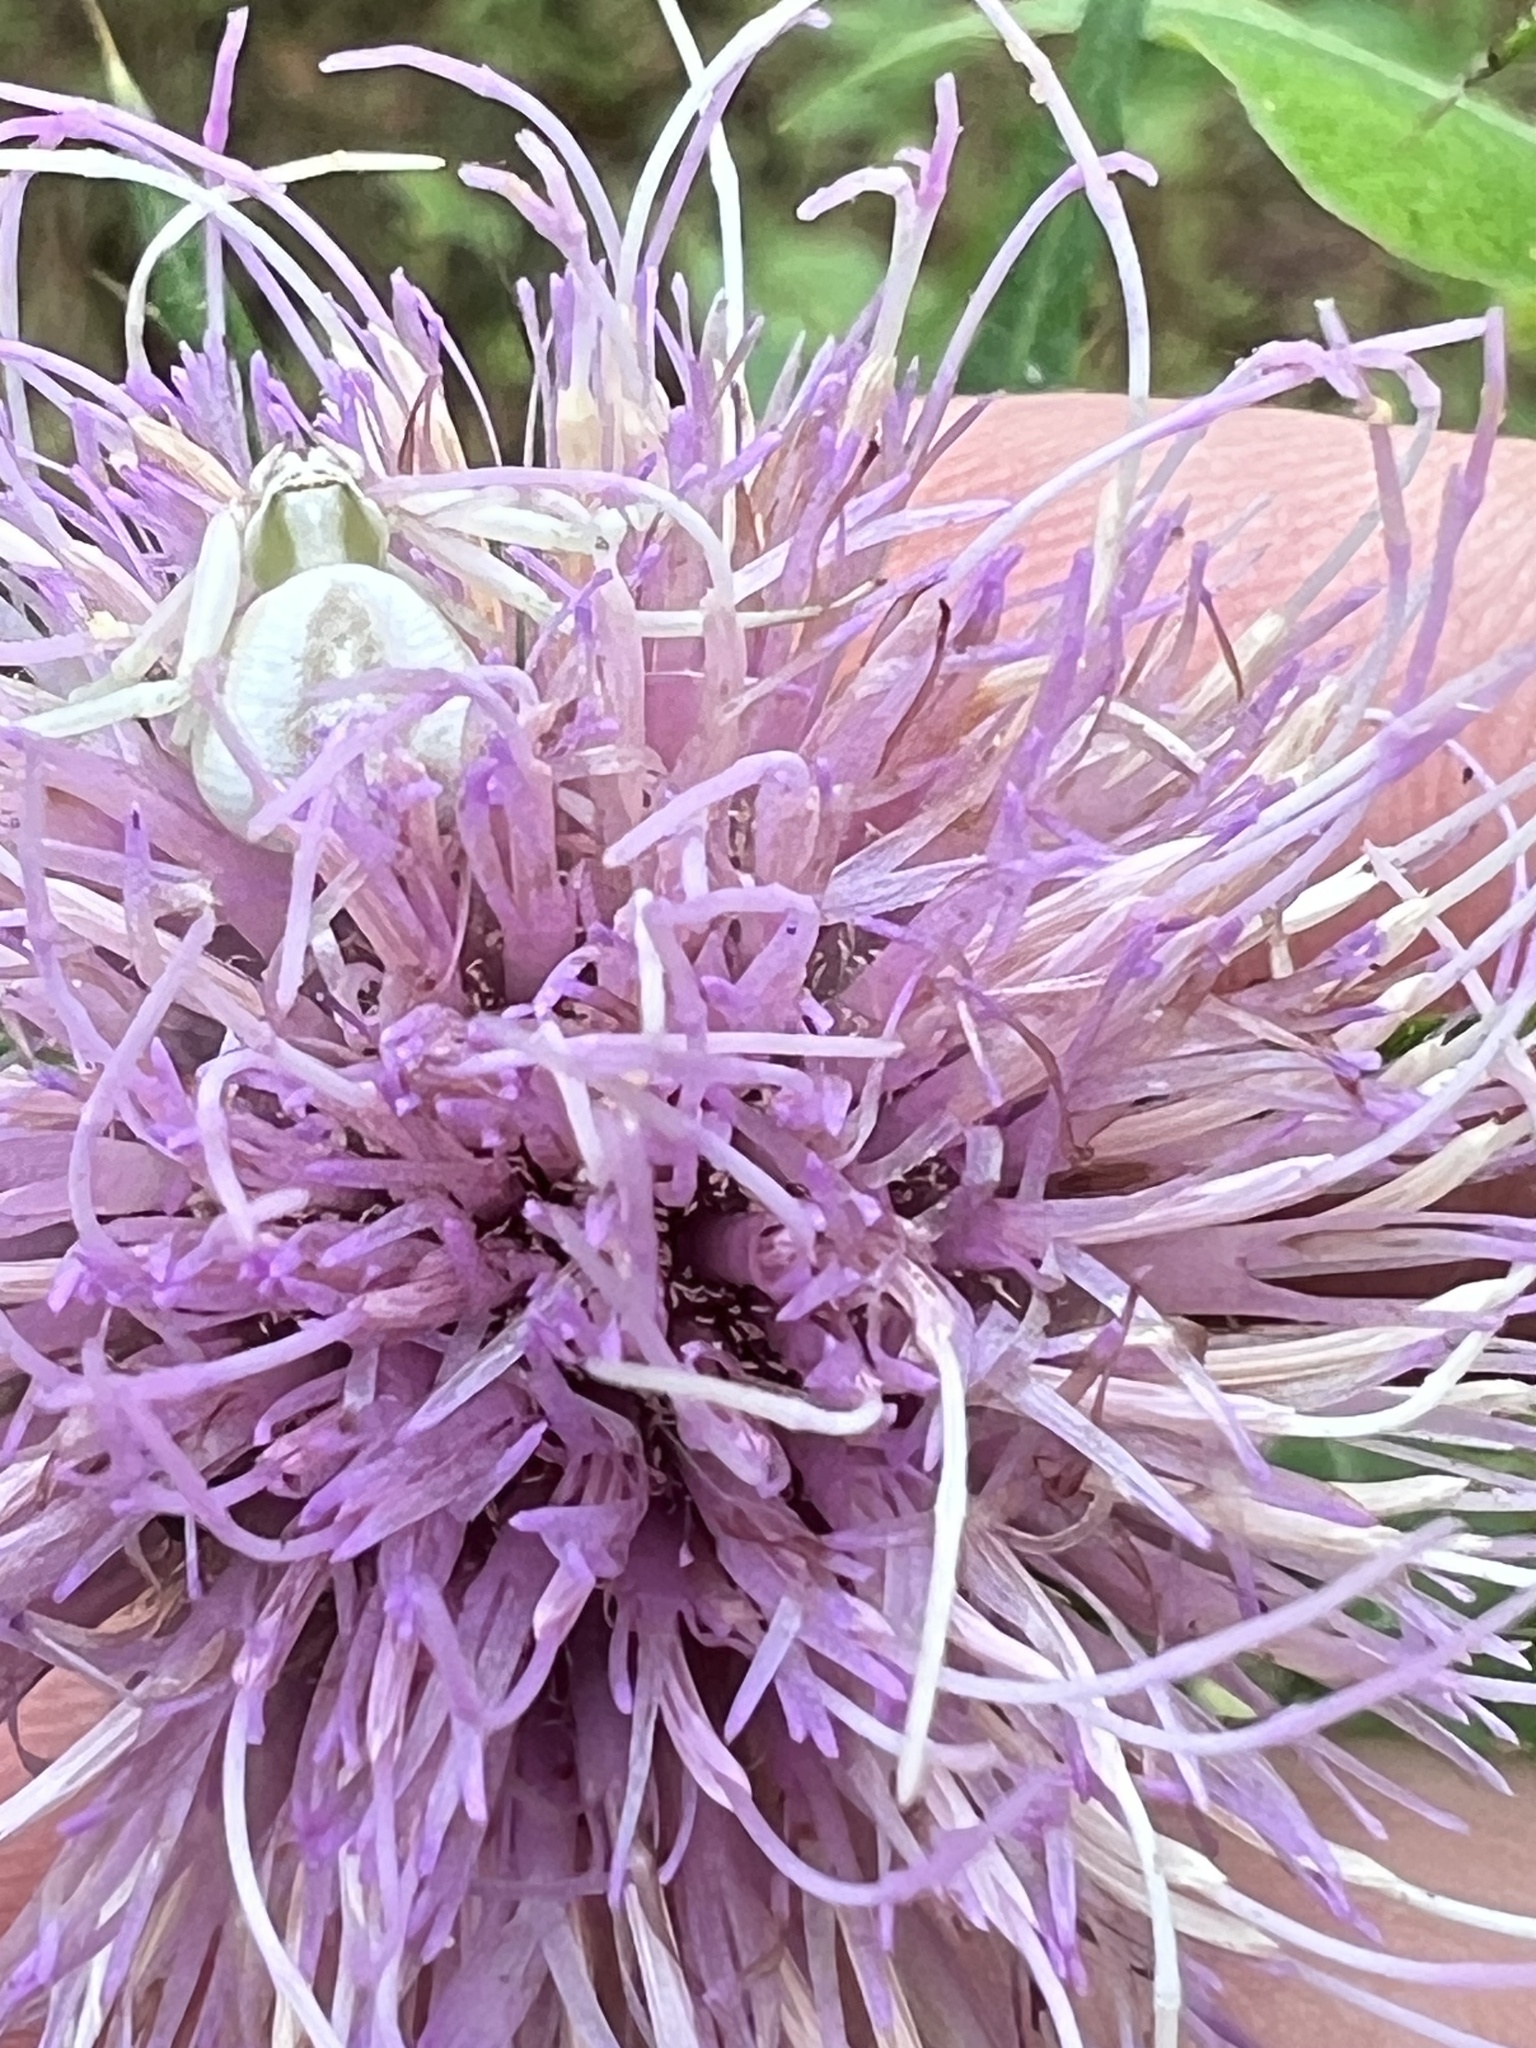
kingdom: Animalia
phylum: Arthropoda
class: Arachnida
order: Araneae
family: Thomisidae
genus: Misumenoides
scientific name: Misumenoides formosipes
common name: White-banded crab spider
